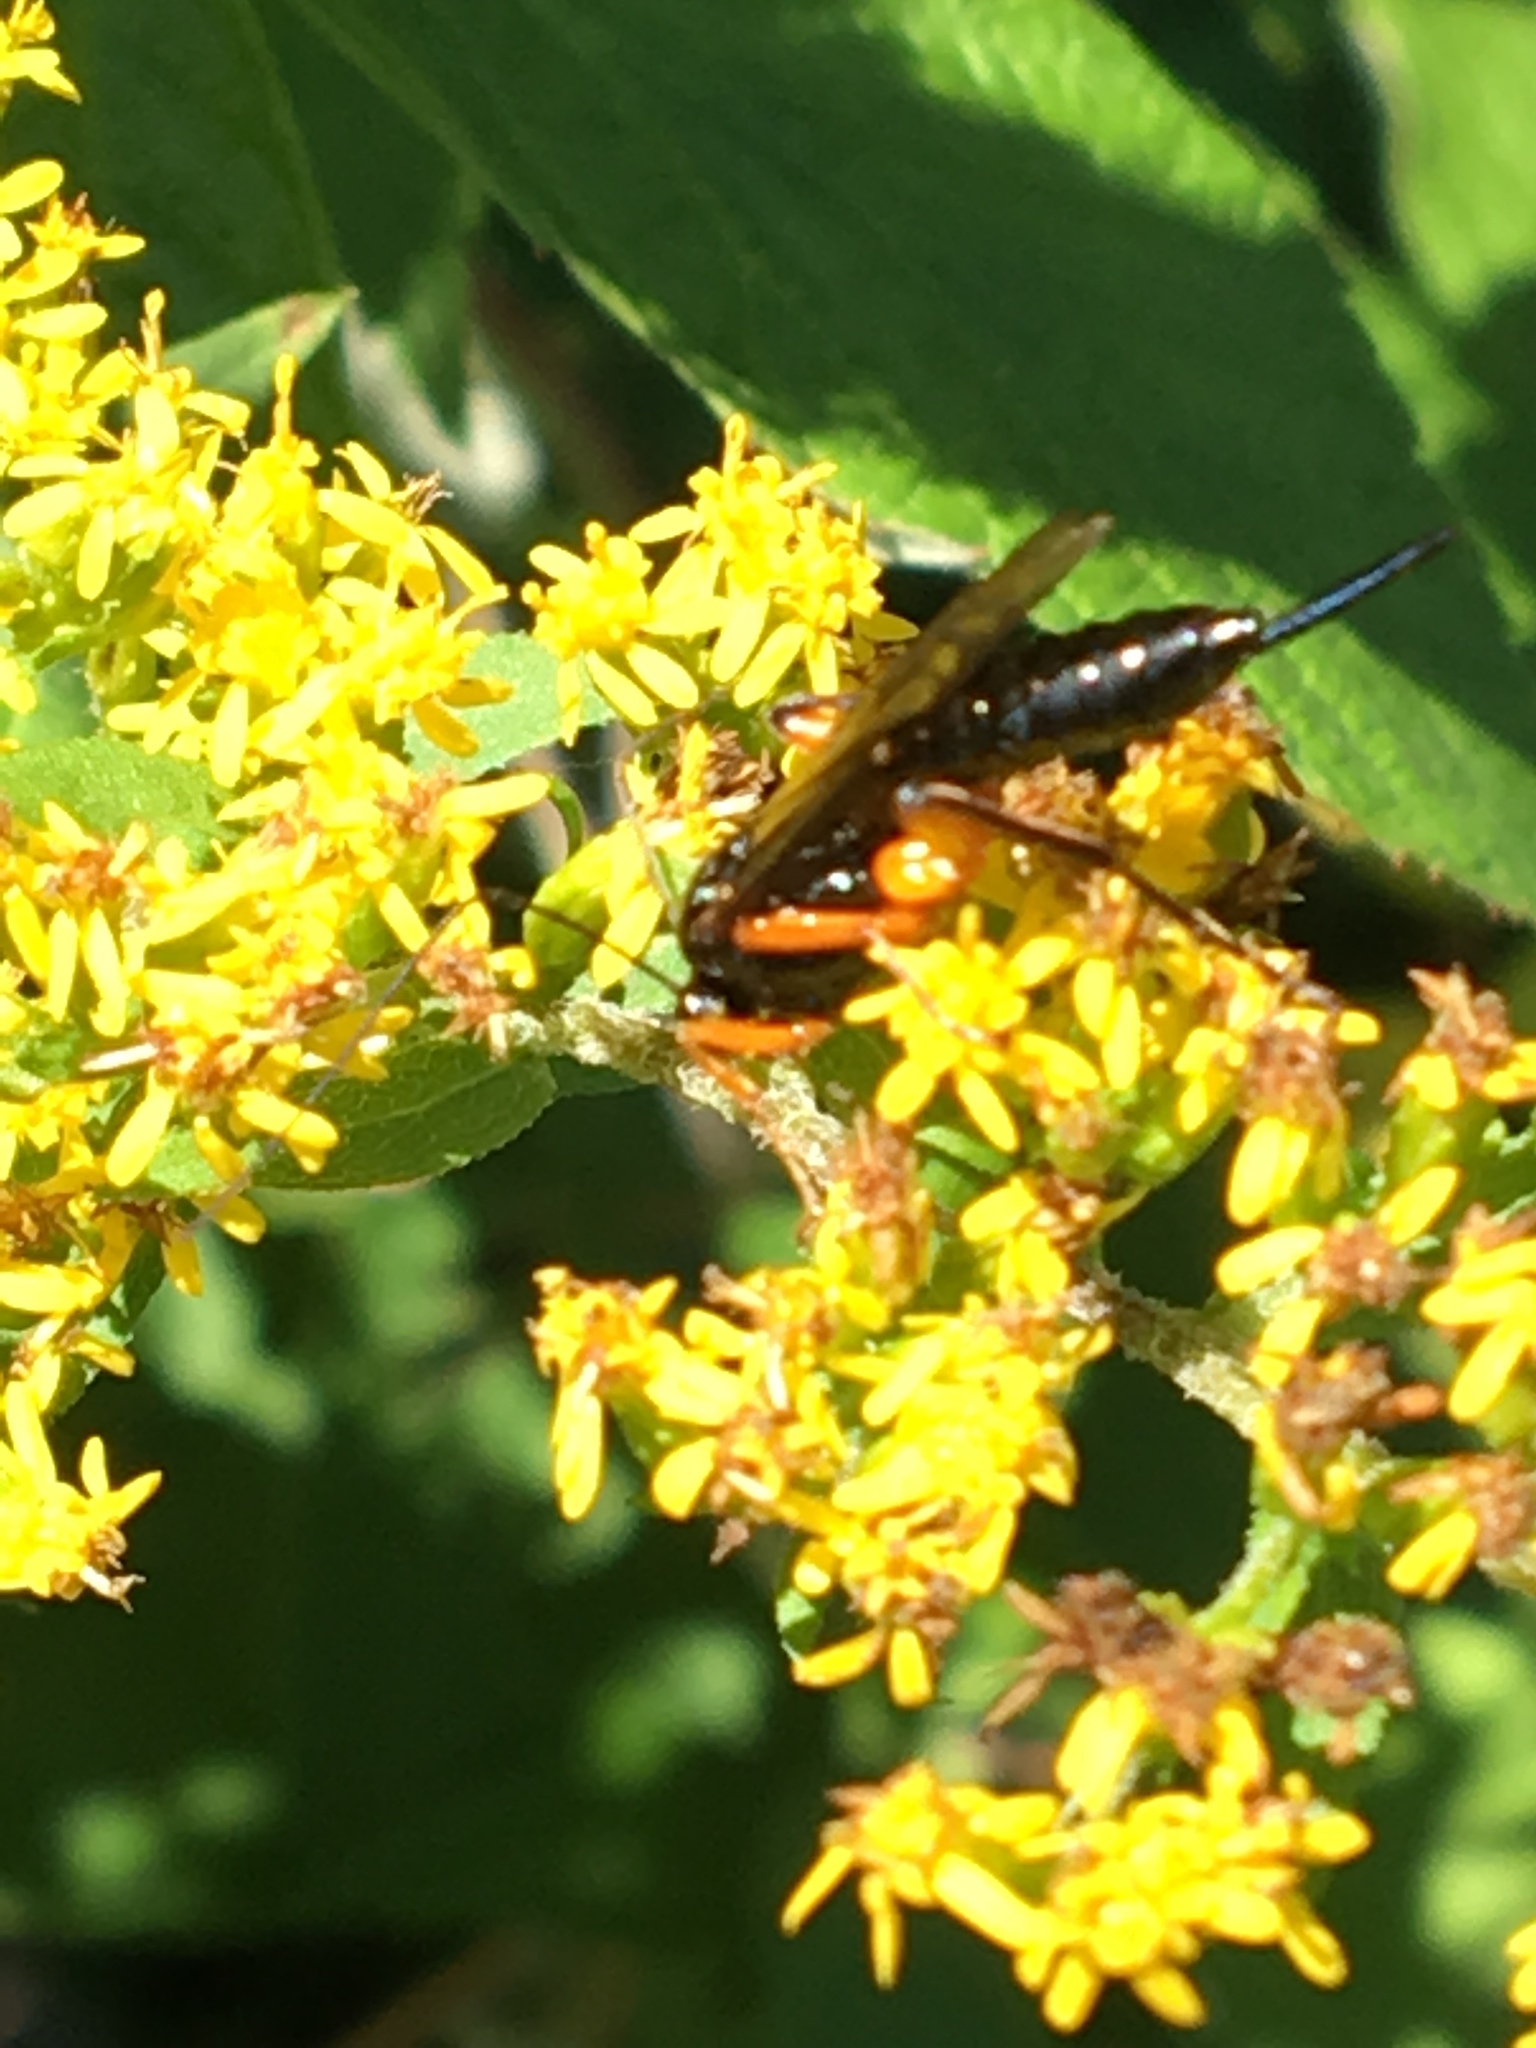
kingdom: Animalia
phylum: Arthropoda
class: Insecta
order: Hymenoptera
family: Ichneumonidae
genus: Pimpla
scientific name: Pimpla pedalis
